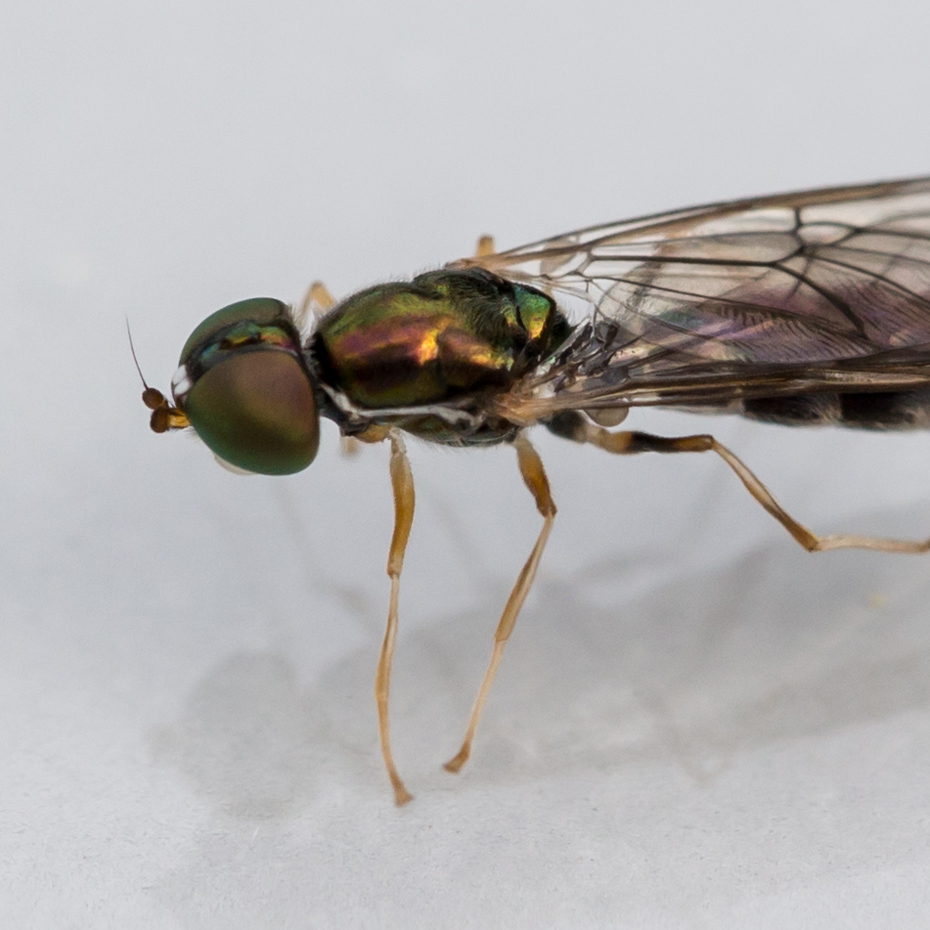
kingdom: Animalia
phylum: Arthropoda
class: Insecta
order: Diptera
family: Stratiomyidae
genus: Sargus
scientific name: Sargus fasciatus
